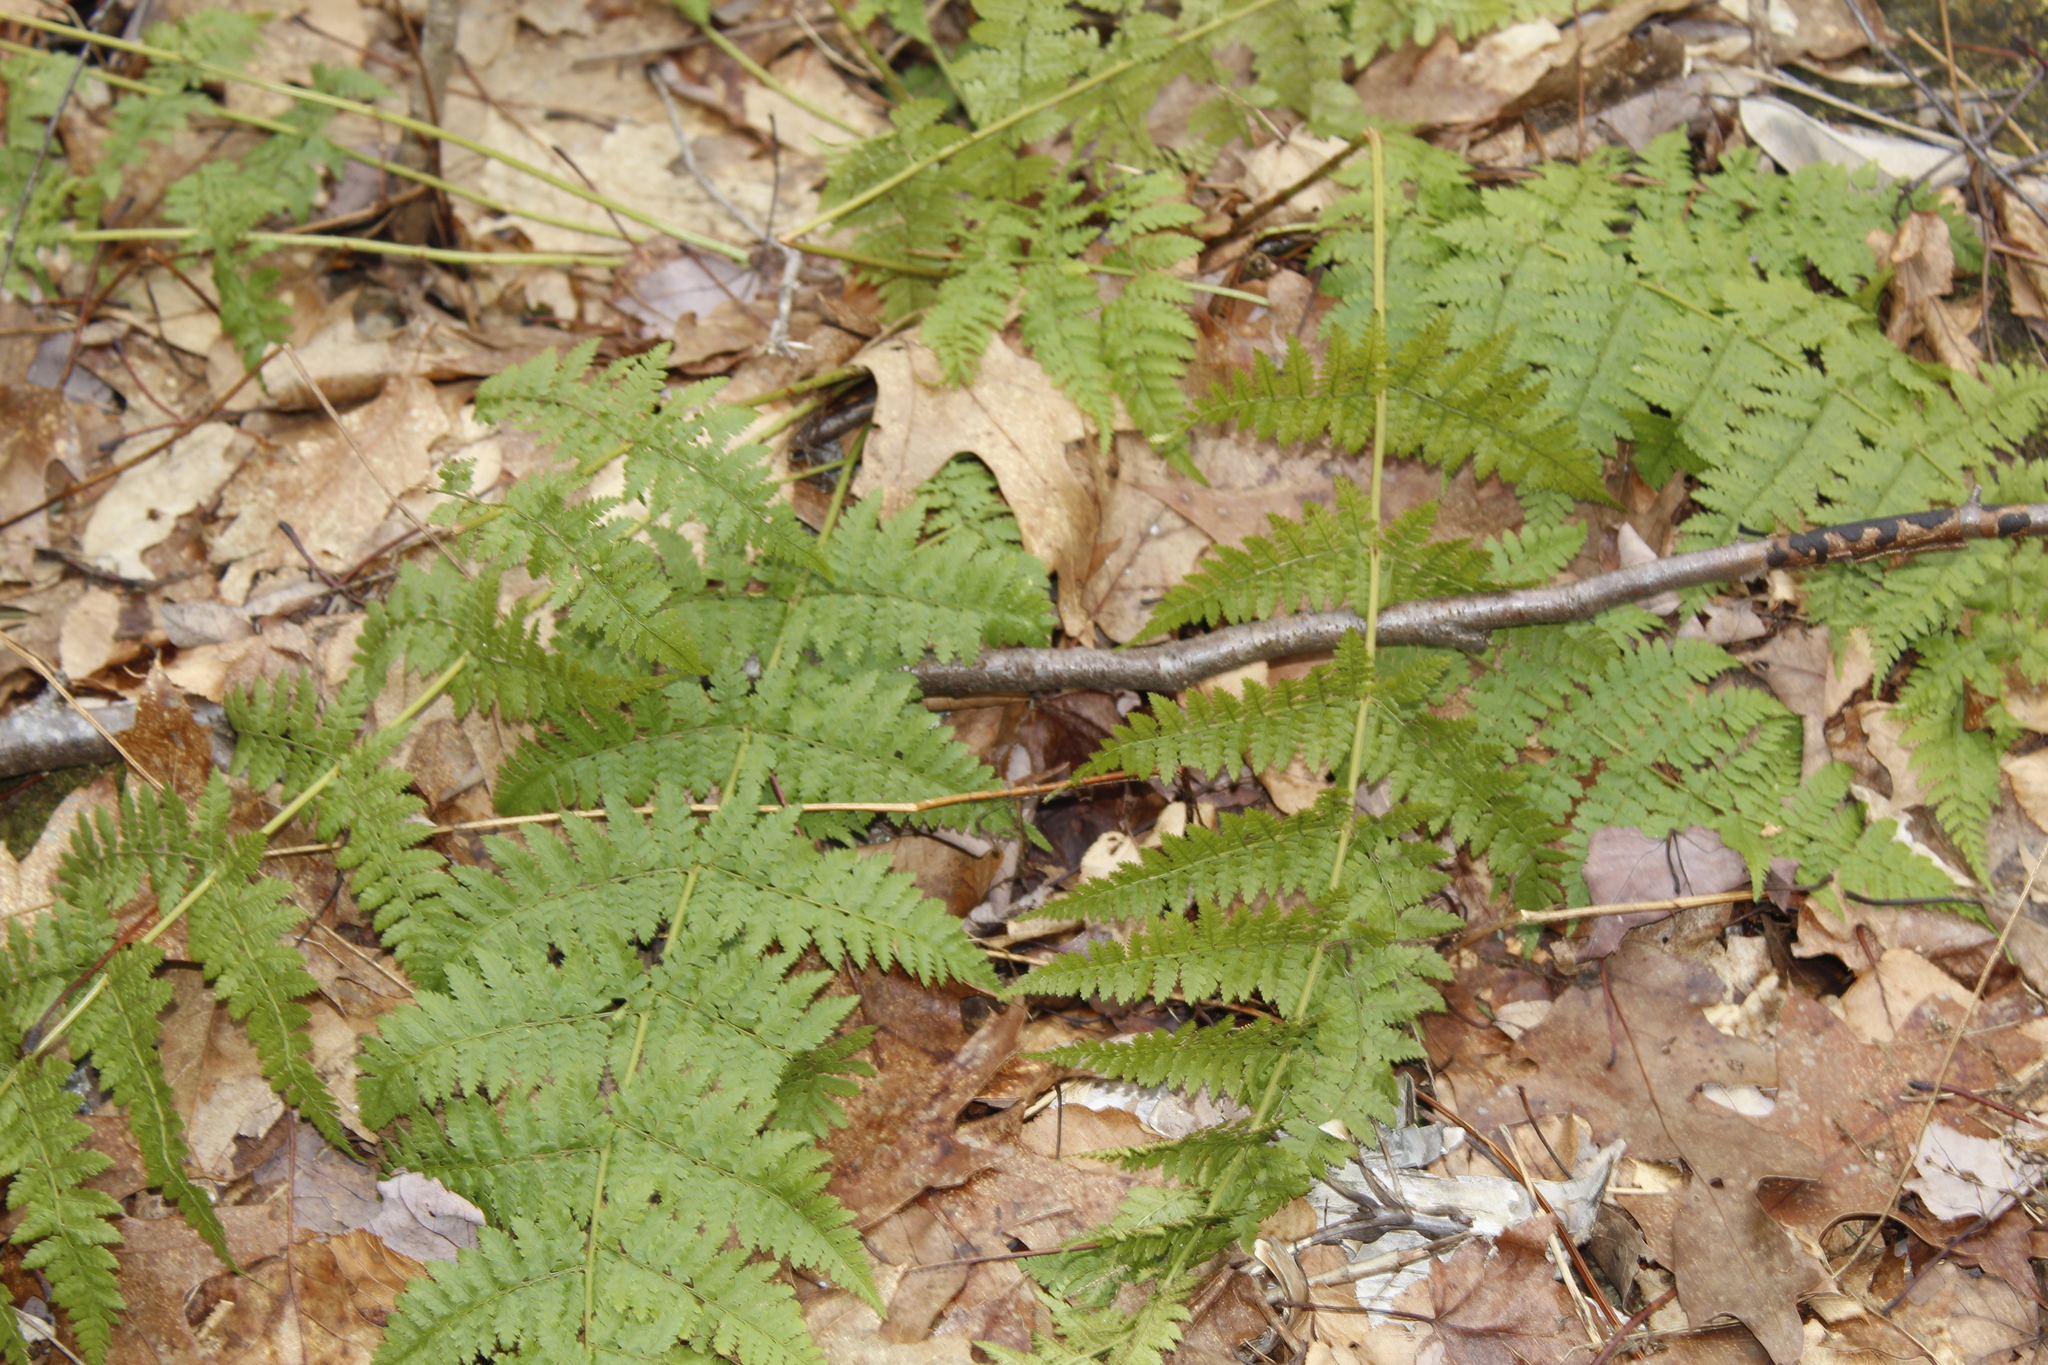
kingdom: Plantae
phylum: Tracheophyta
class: Polypodiopsida
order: Polypodiales
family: Dryopteridaceae
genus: Dryopteris
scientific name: Dryopteris intermedia
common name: Evergreen wood fern
